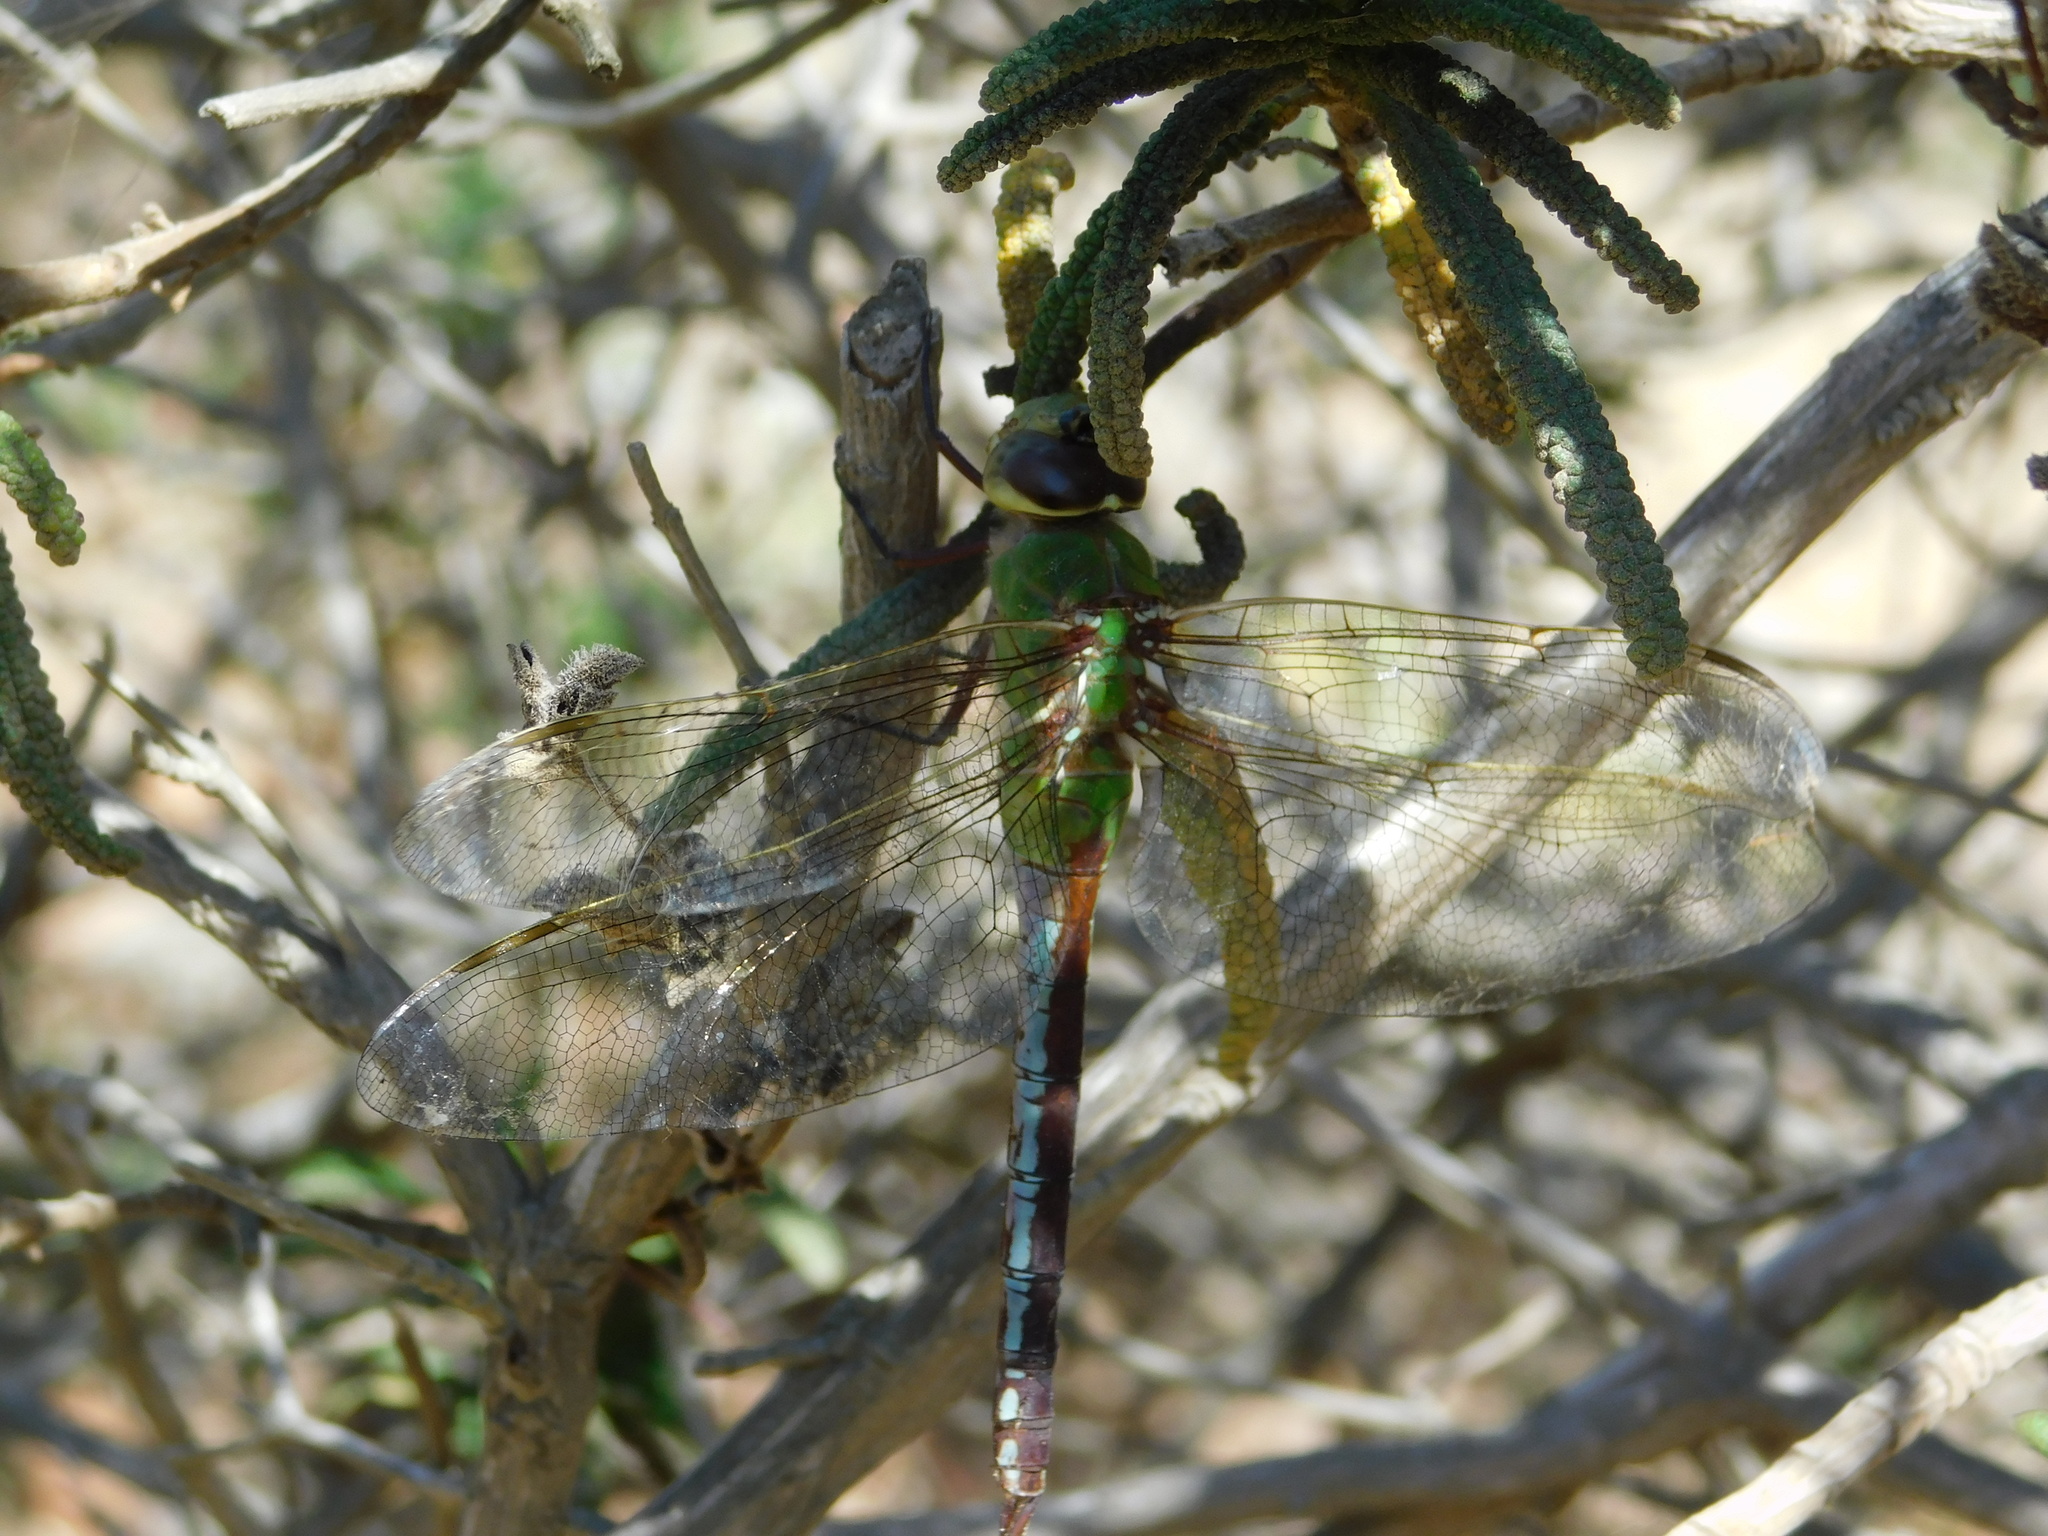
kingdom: Animalia
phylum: Arthropoda
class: Insecta
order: Odonata
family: Aeshnidae
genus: Anax
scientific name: Anax junius
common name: Common green darner
